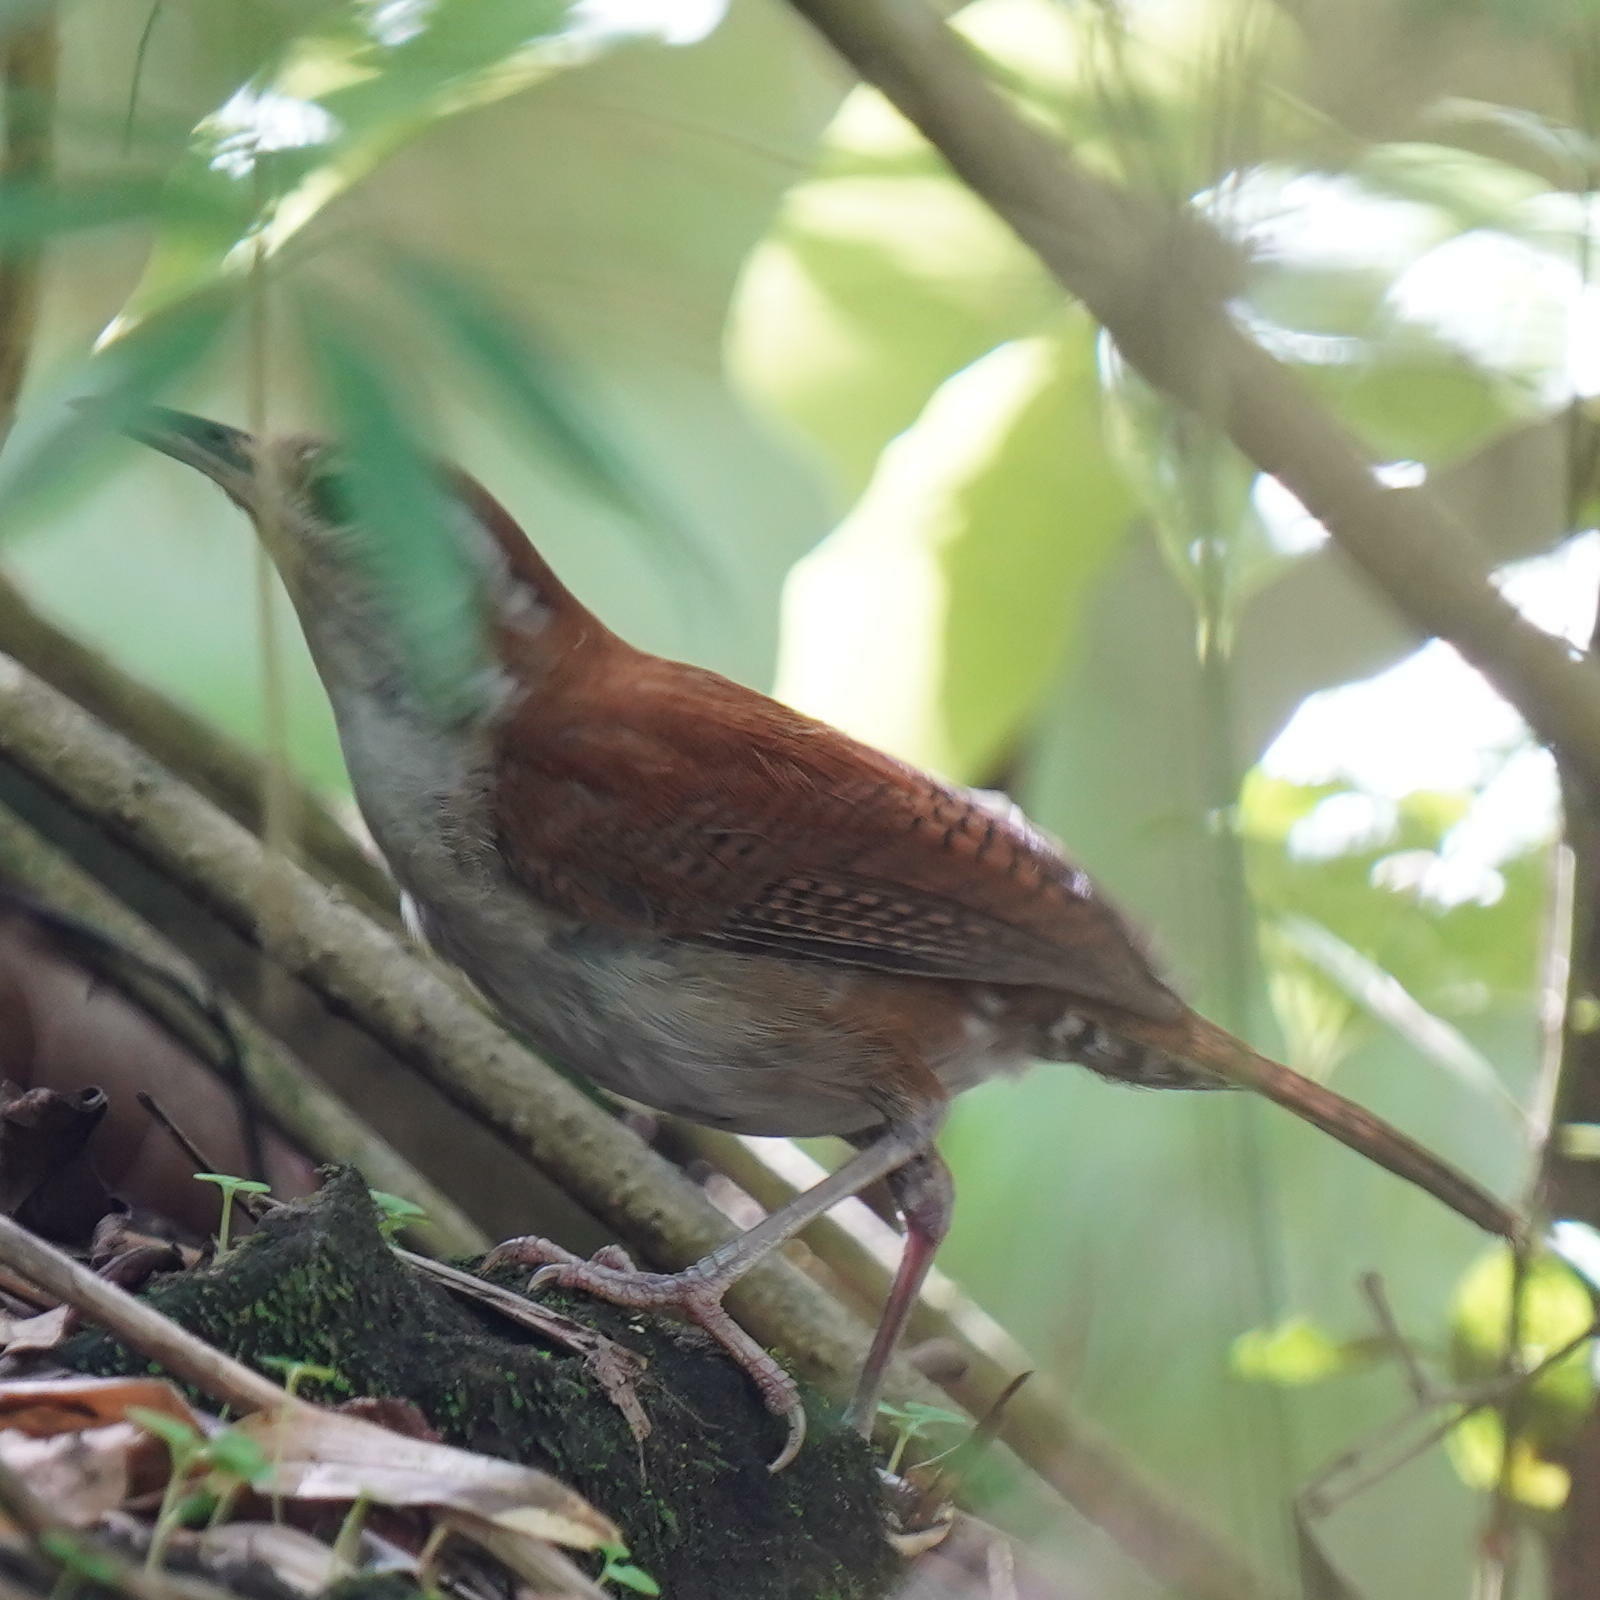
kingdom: Animalia
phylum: Chordata
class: Aves
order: Passeriformes
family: Troglodytidae
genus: Thryophilus
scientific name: Thryophilus rufalbus
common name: Rufous-and-white wren
